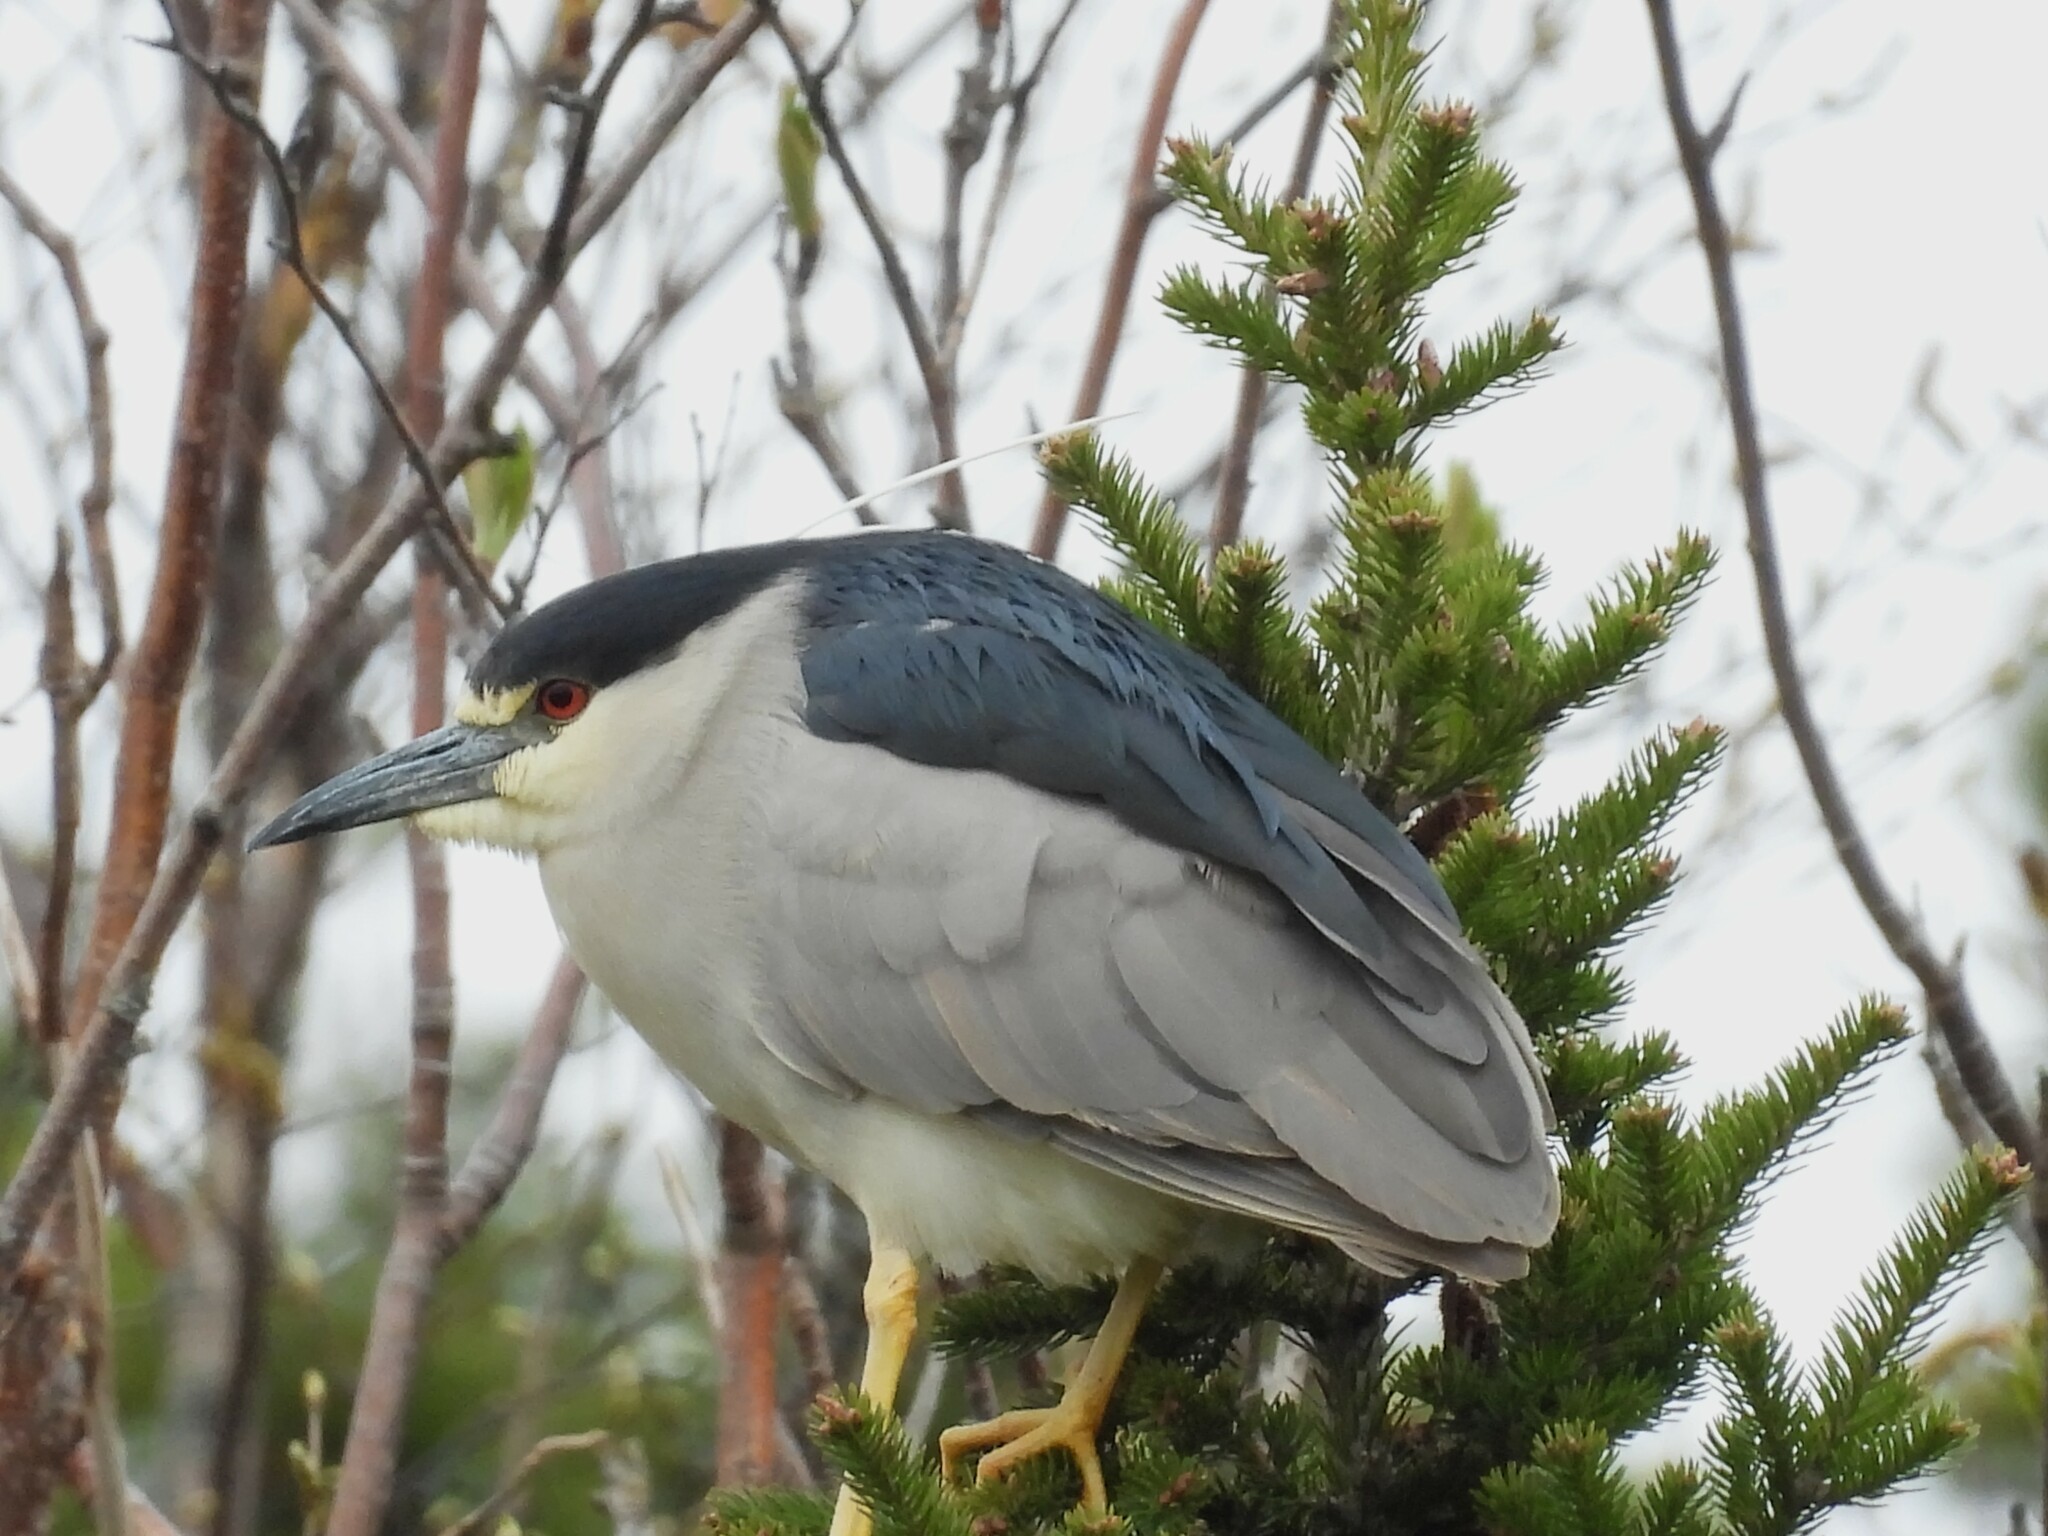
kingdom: Animalia
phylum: Chordata
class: Aves
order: Pelecaniformes
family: Ardeidae
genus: Nycticorax
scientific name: Nycticorax nycticorax
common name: Black-crowned night heron
